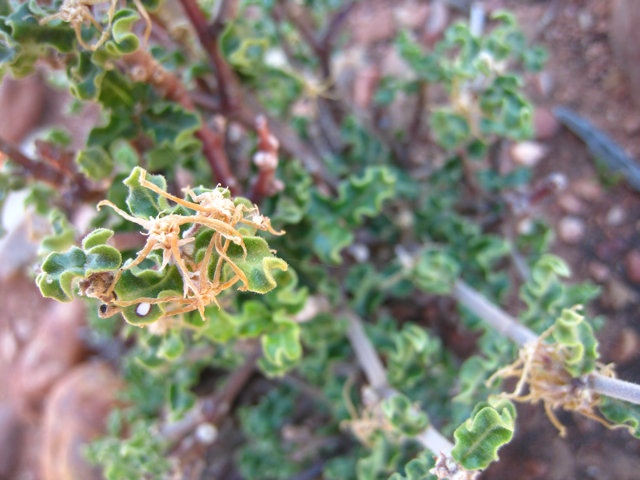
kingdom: Plantae
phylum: Tracheophyta
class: Magnoliopsida
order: Gentianales
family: Apocynaceae
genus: Fockea
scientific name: Fockea capensis
